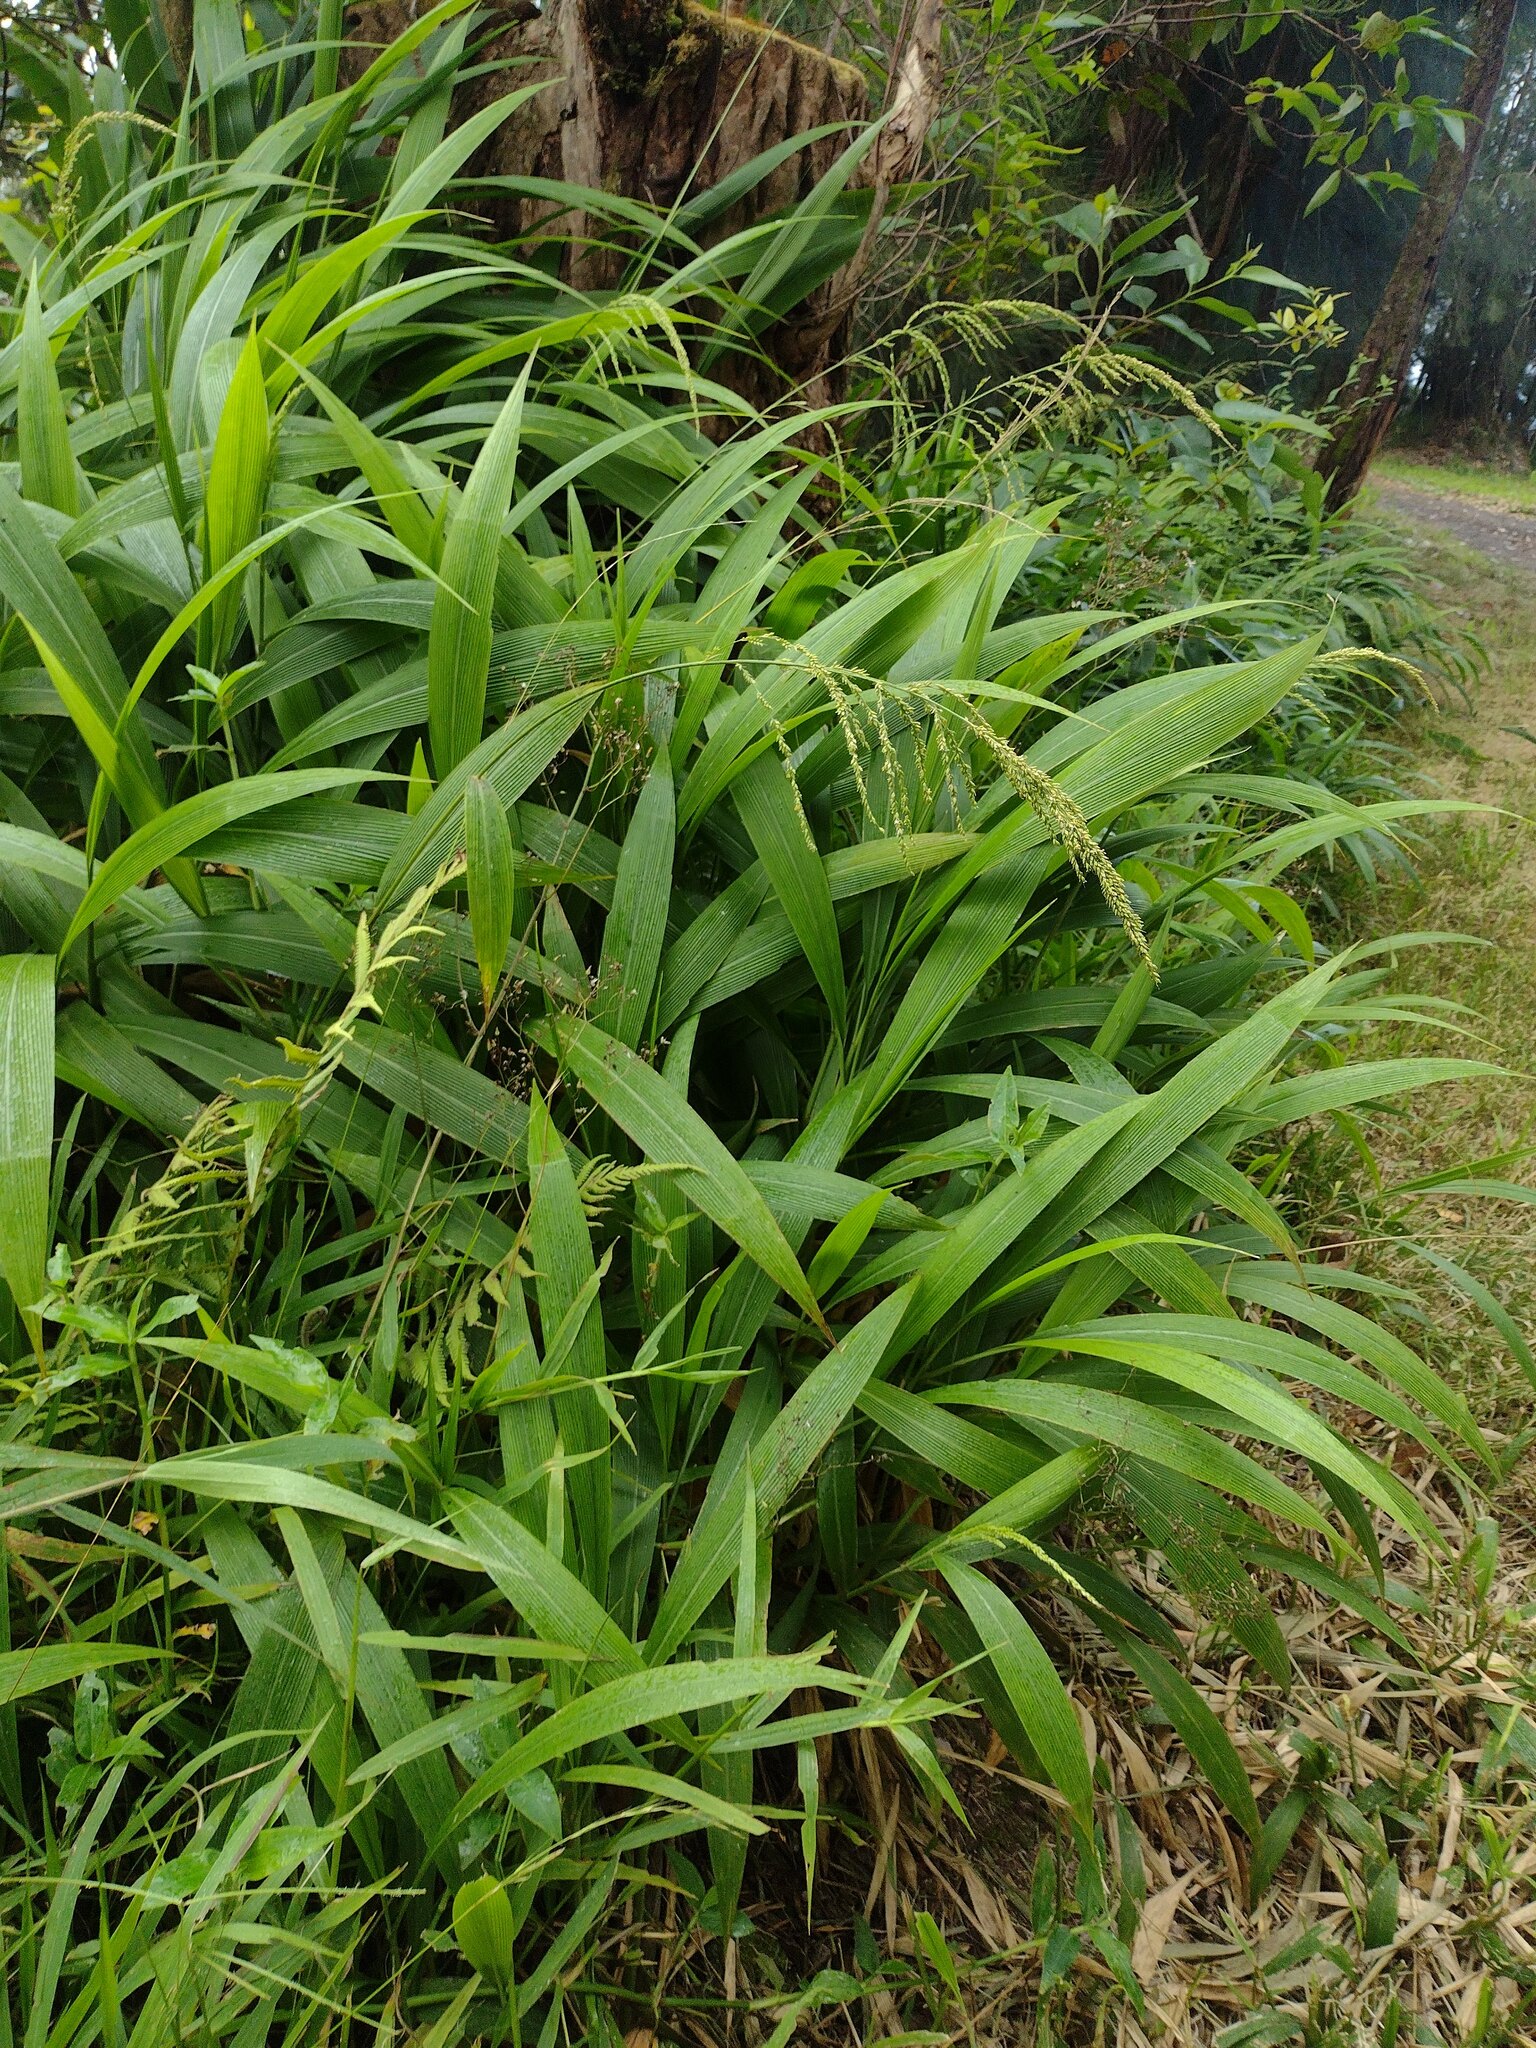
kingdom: Plantae
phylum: Tracheophyta
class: Liliopsida
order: Poales
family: Poaceae
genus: Setaria
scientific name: Setaria palmifolia
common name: Broadleaved bristlegrass
